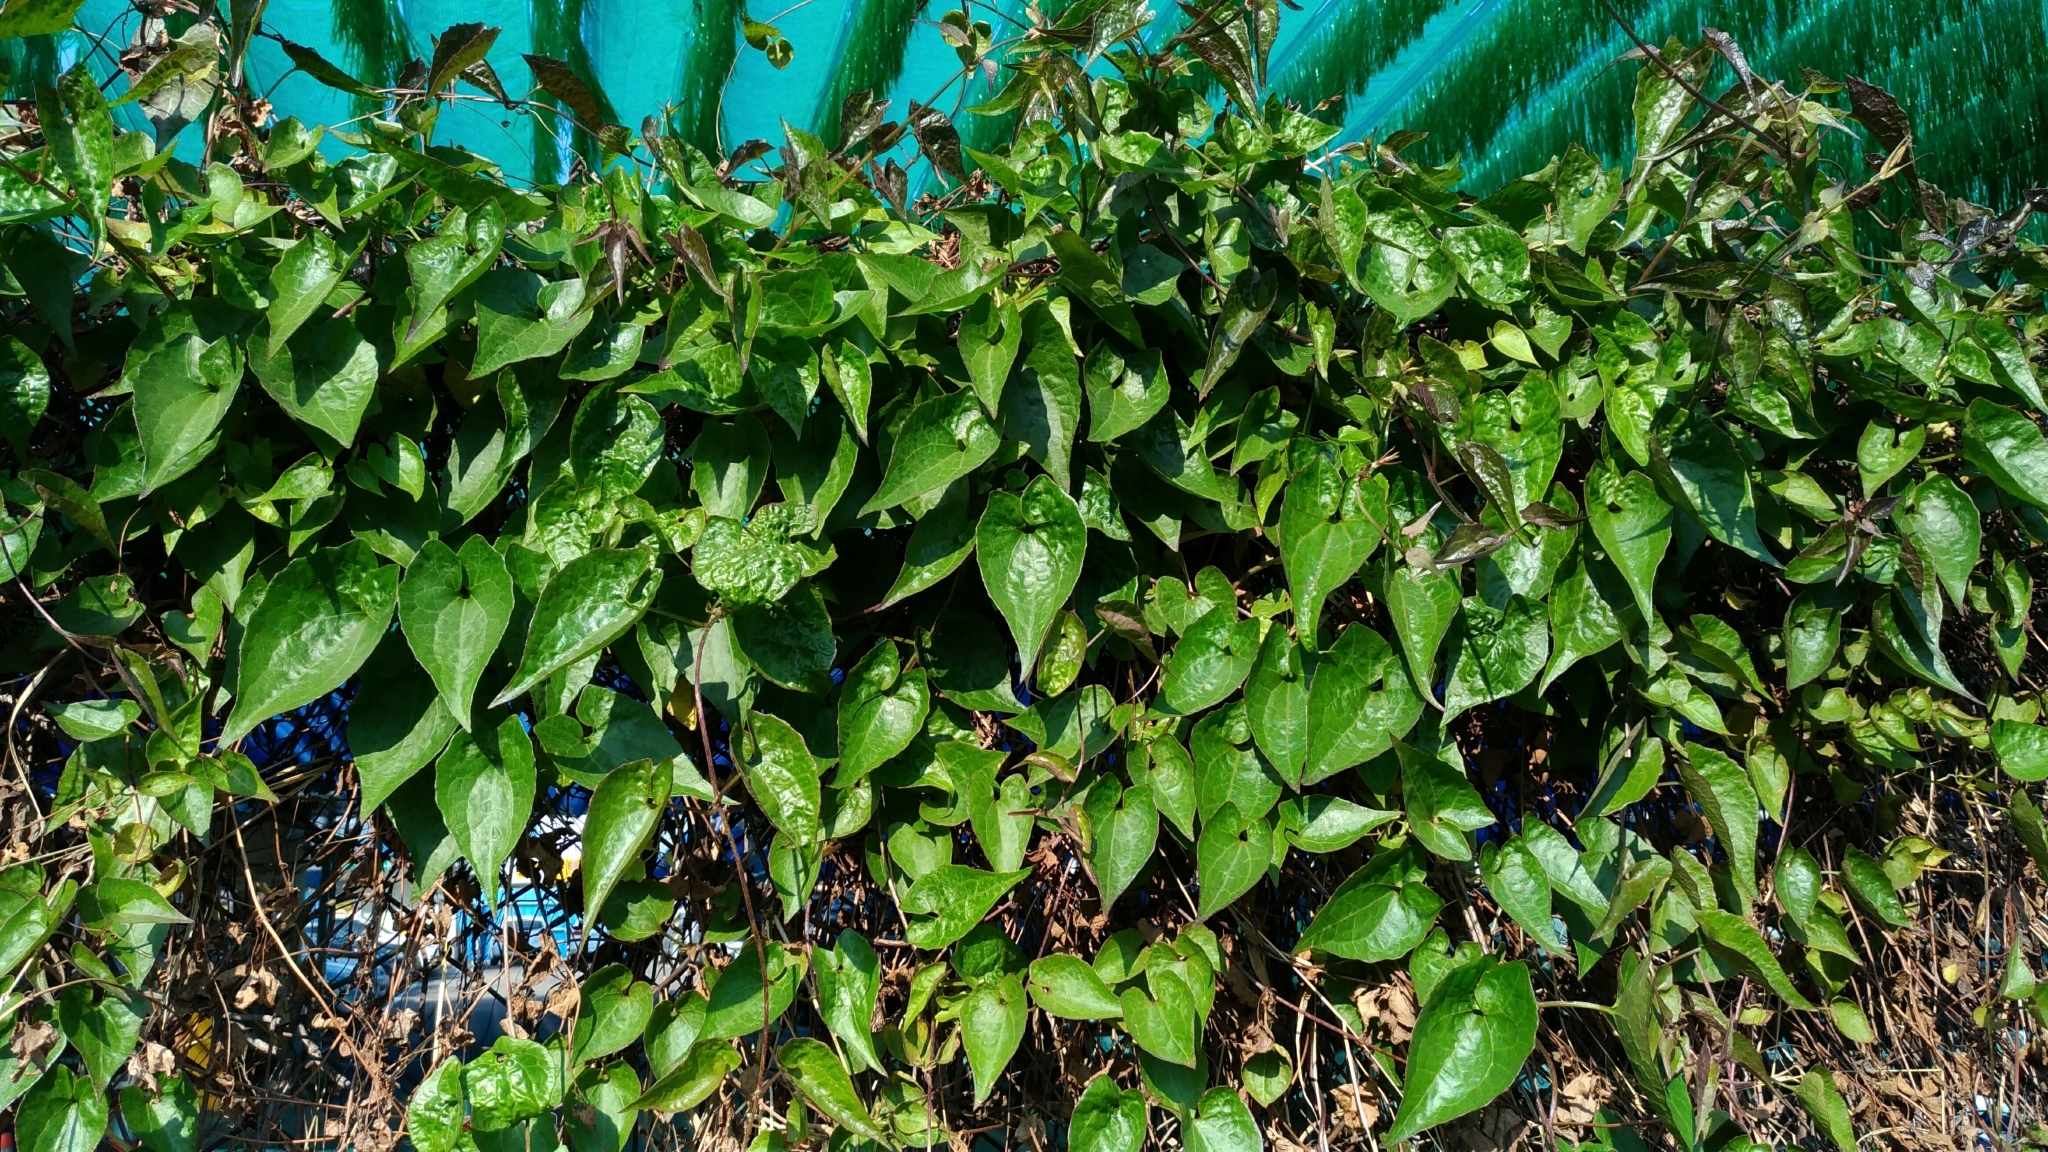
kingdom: Plantae
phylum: Tracheophyta
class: Magnoliopsida
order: Asterales
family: Asteraceae
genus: Mikania
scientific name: Mikania micrantha
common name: Mile-a-minute
